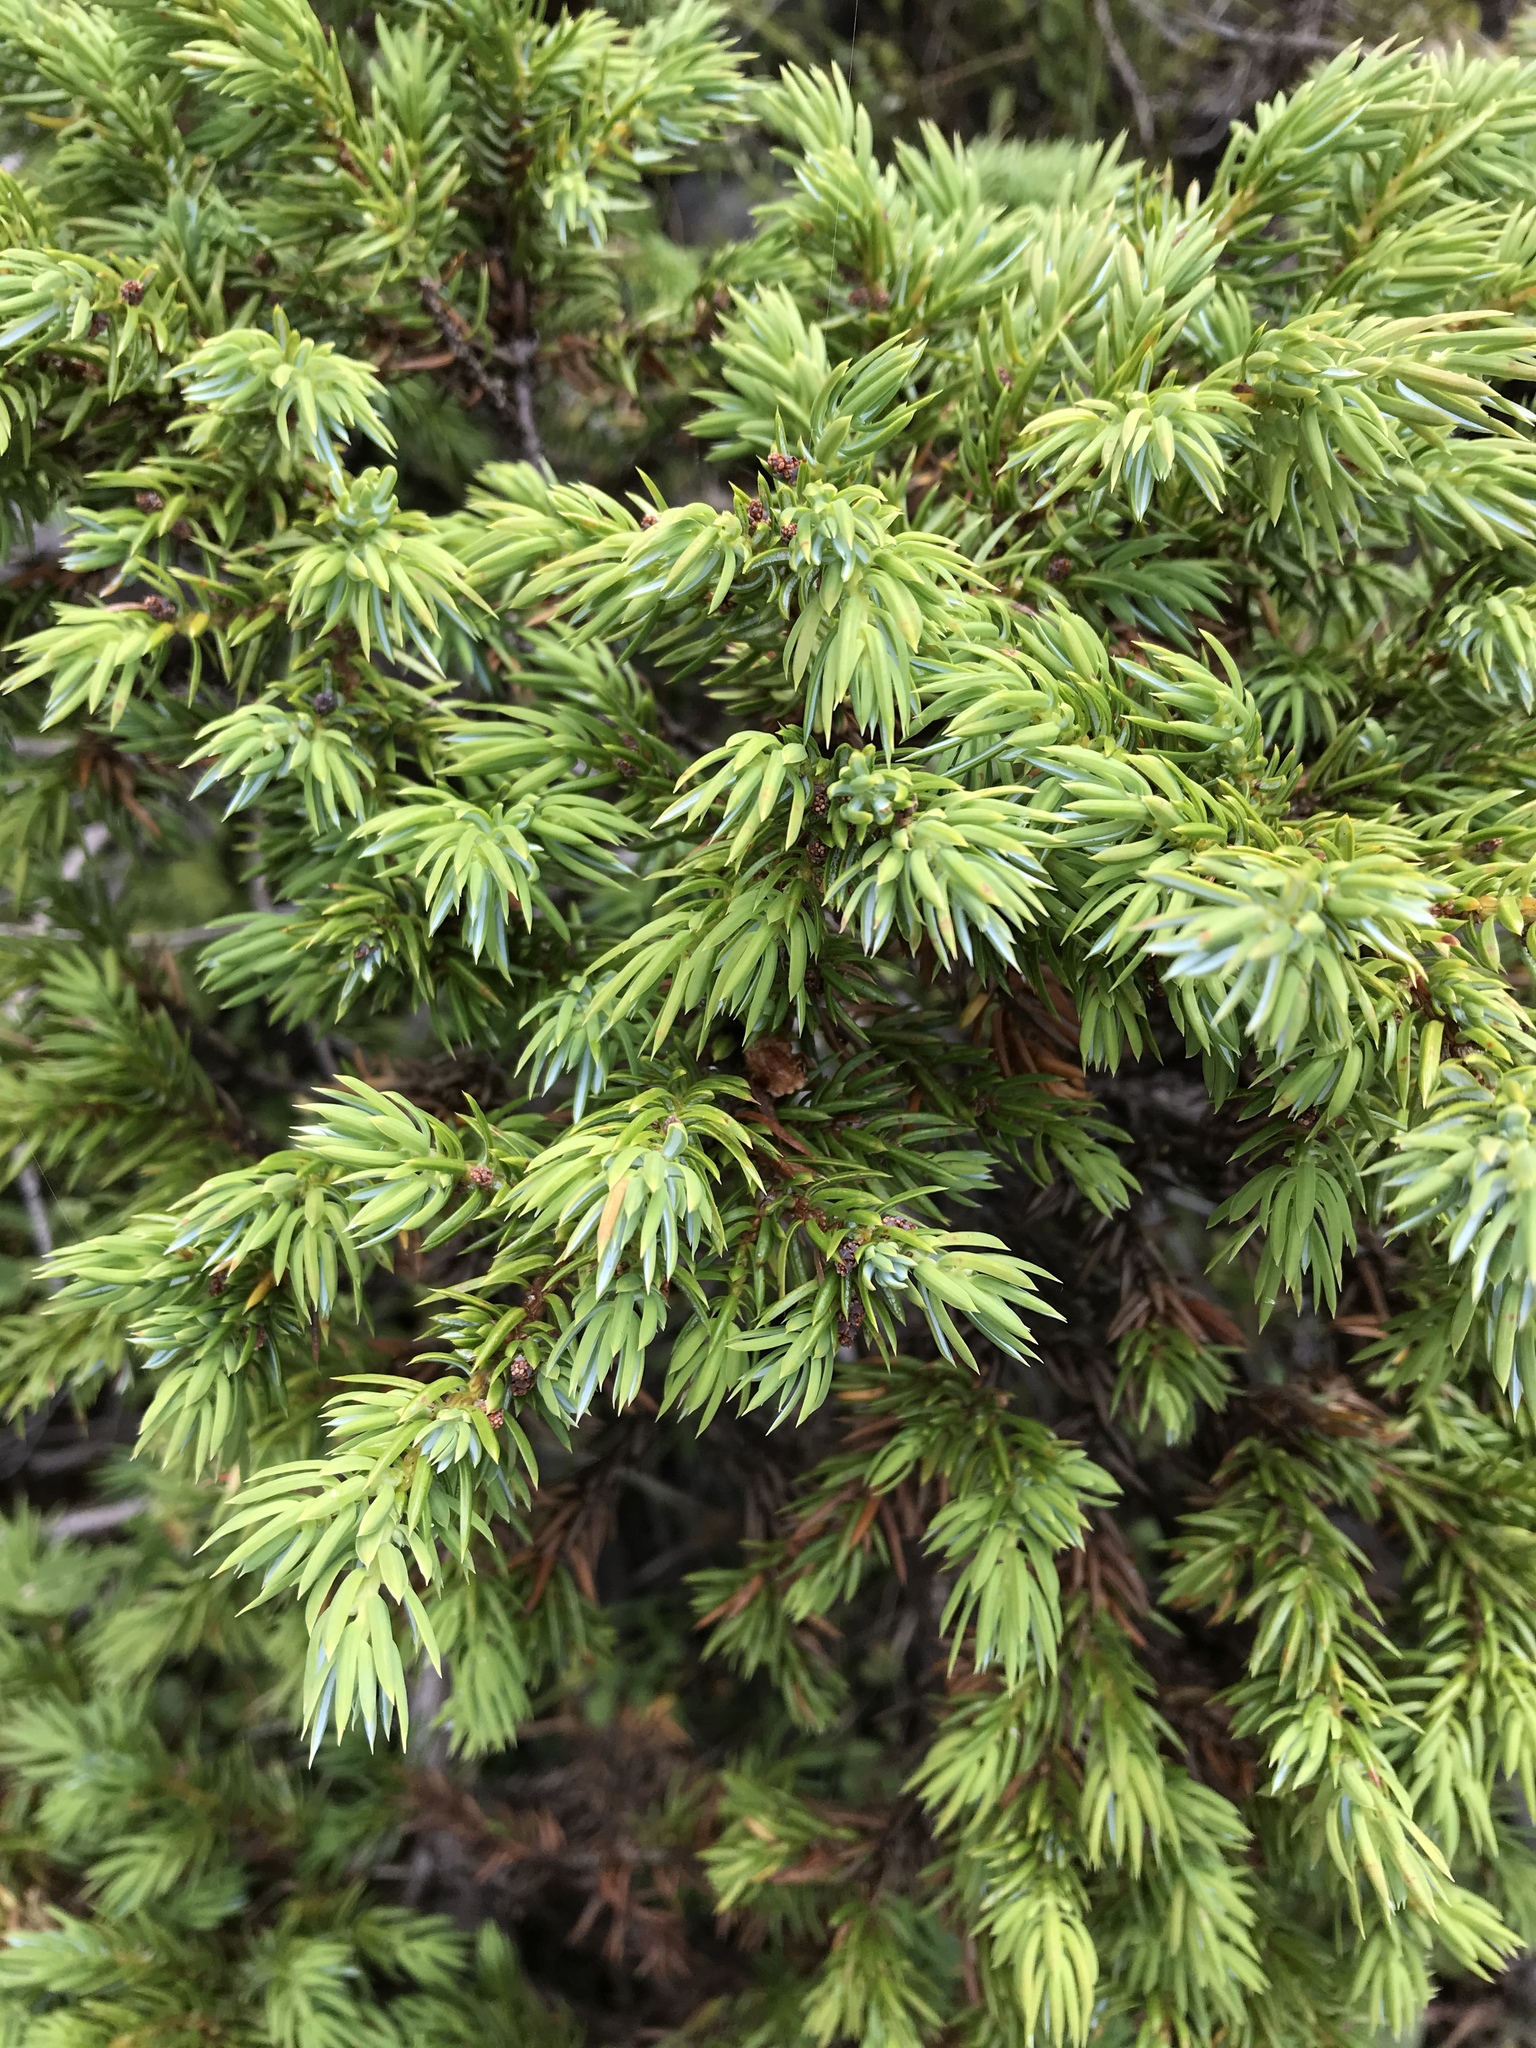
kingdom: Plantae
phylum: Tracheophyta
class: Pinopsida
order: Pinales
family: Cupressaceae
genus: Juniperus
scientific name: Juniperus communis
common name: Common juniper
